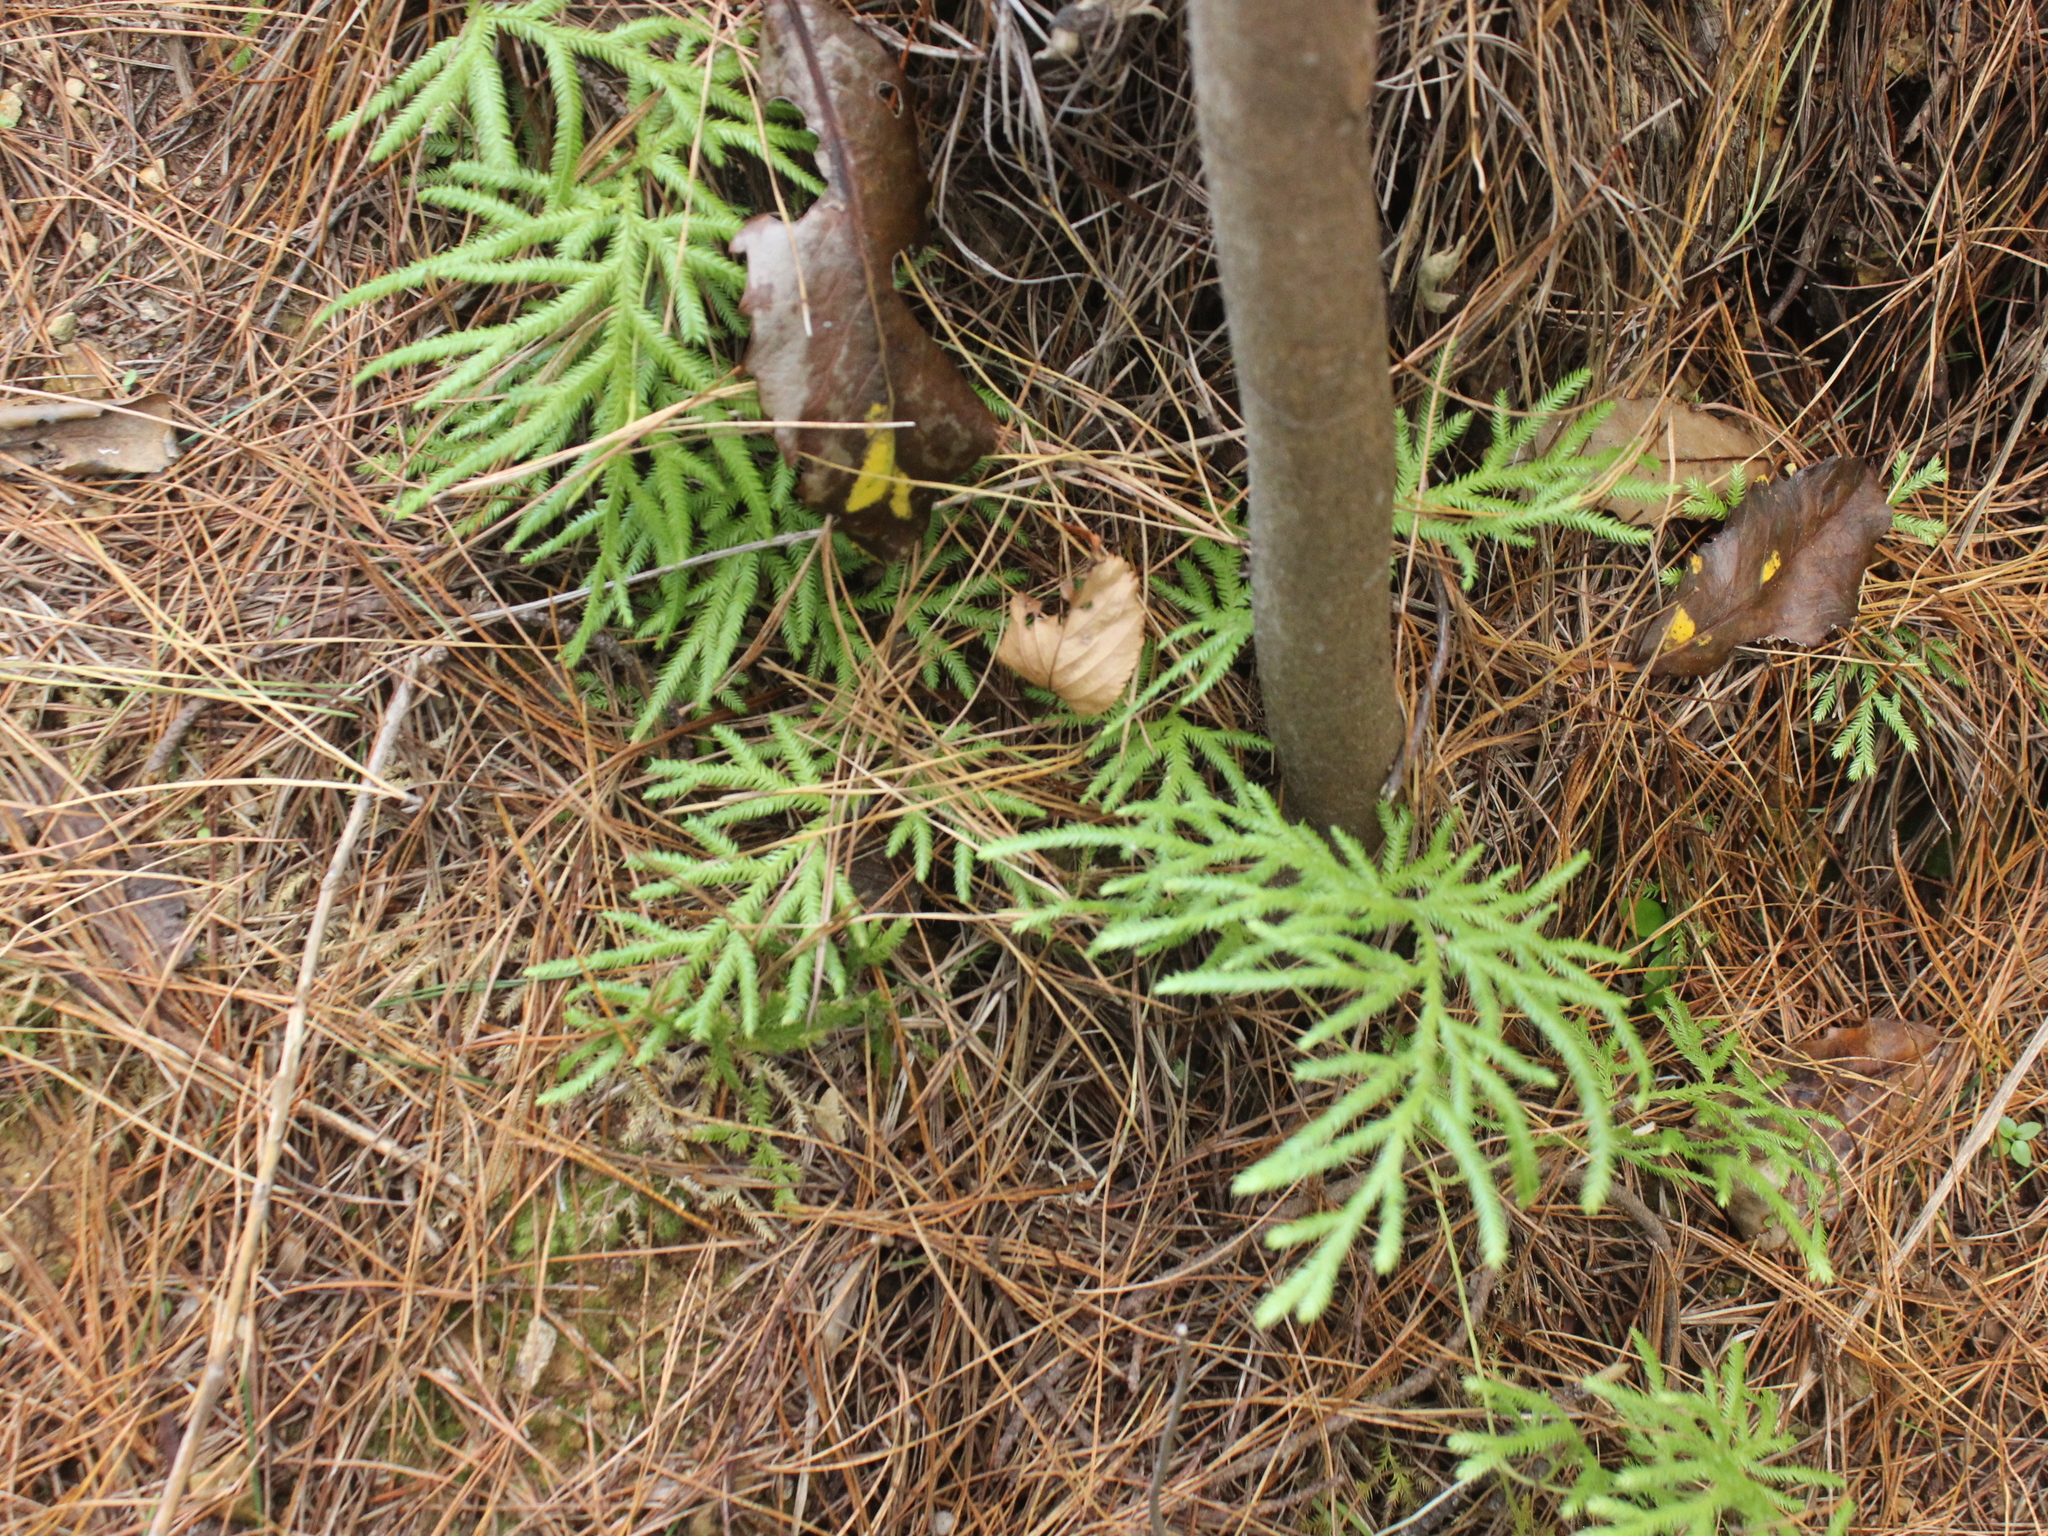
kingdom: Plantae
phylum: Tracheophyta
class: Lycopodiopsida
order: Lycopodiales
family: Lycopodiaceae
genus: Lycopodium
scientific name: Lycopodium volubile
